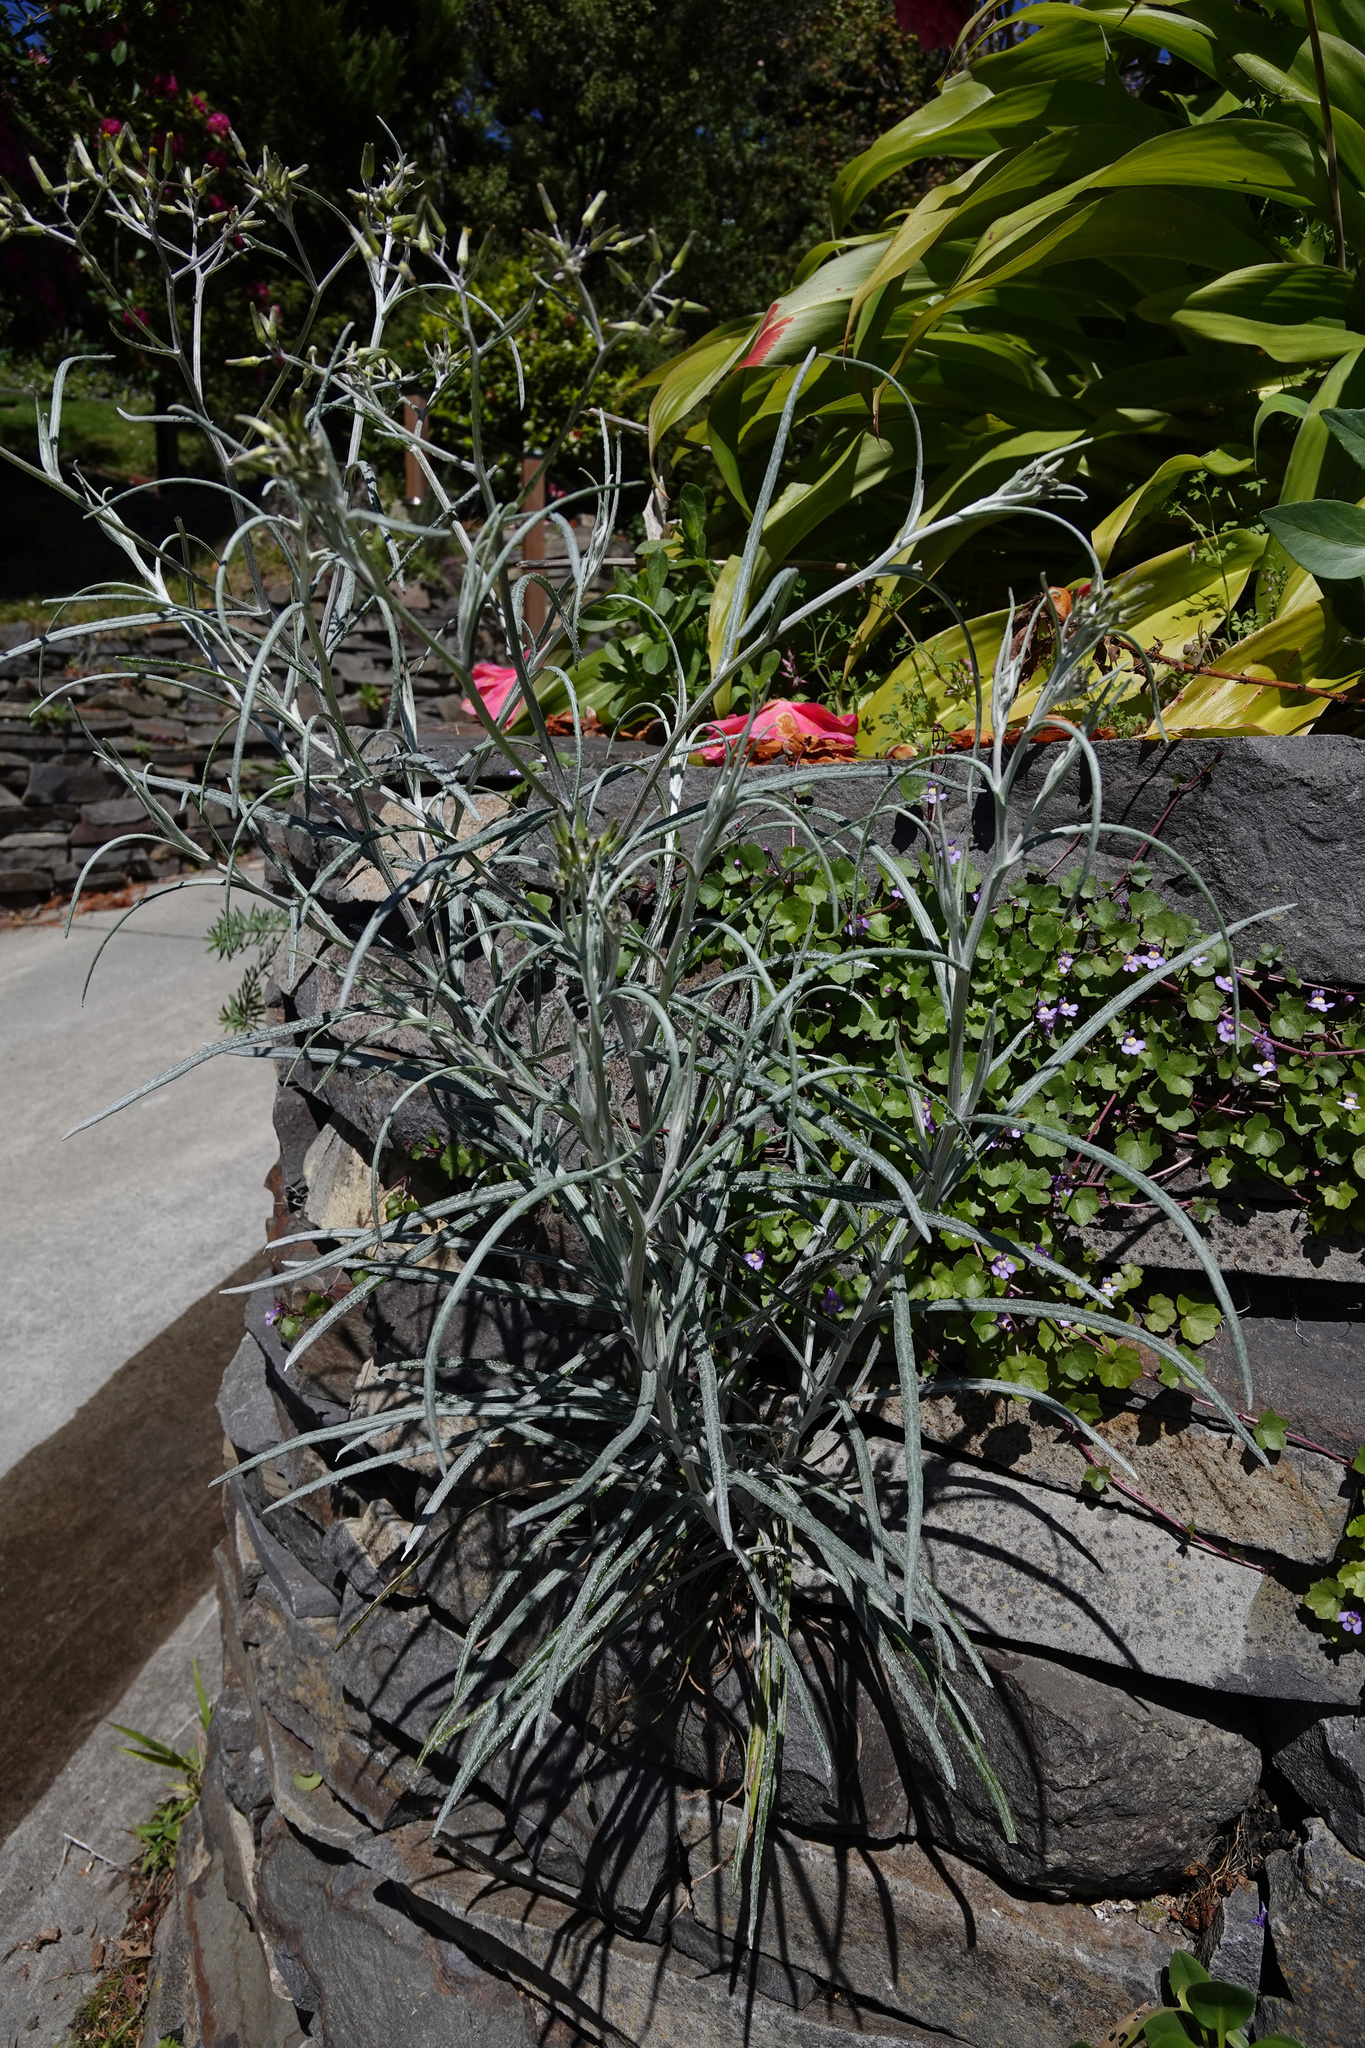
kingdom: Plantae
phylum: Tracheophyta
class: Magnoliopsida
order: Asterales
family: Asteraceae
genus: Senecio
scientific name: Senecio quadridentatus
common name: Cotton fireweed
